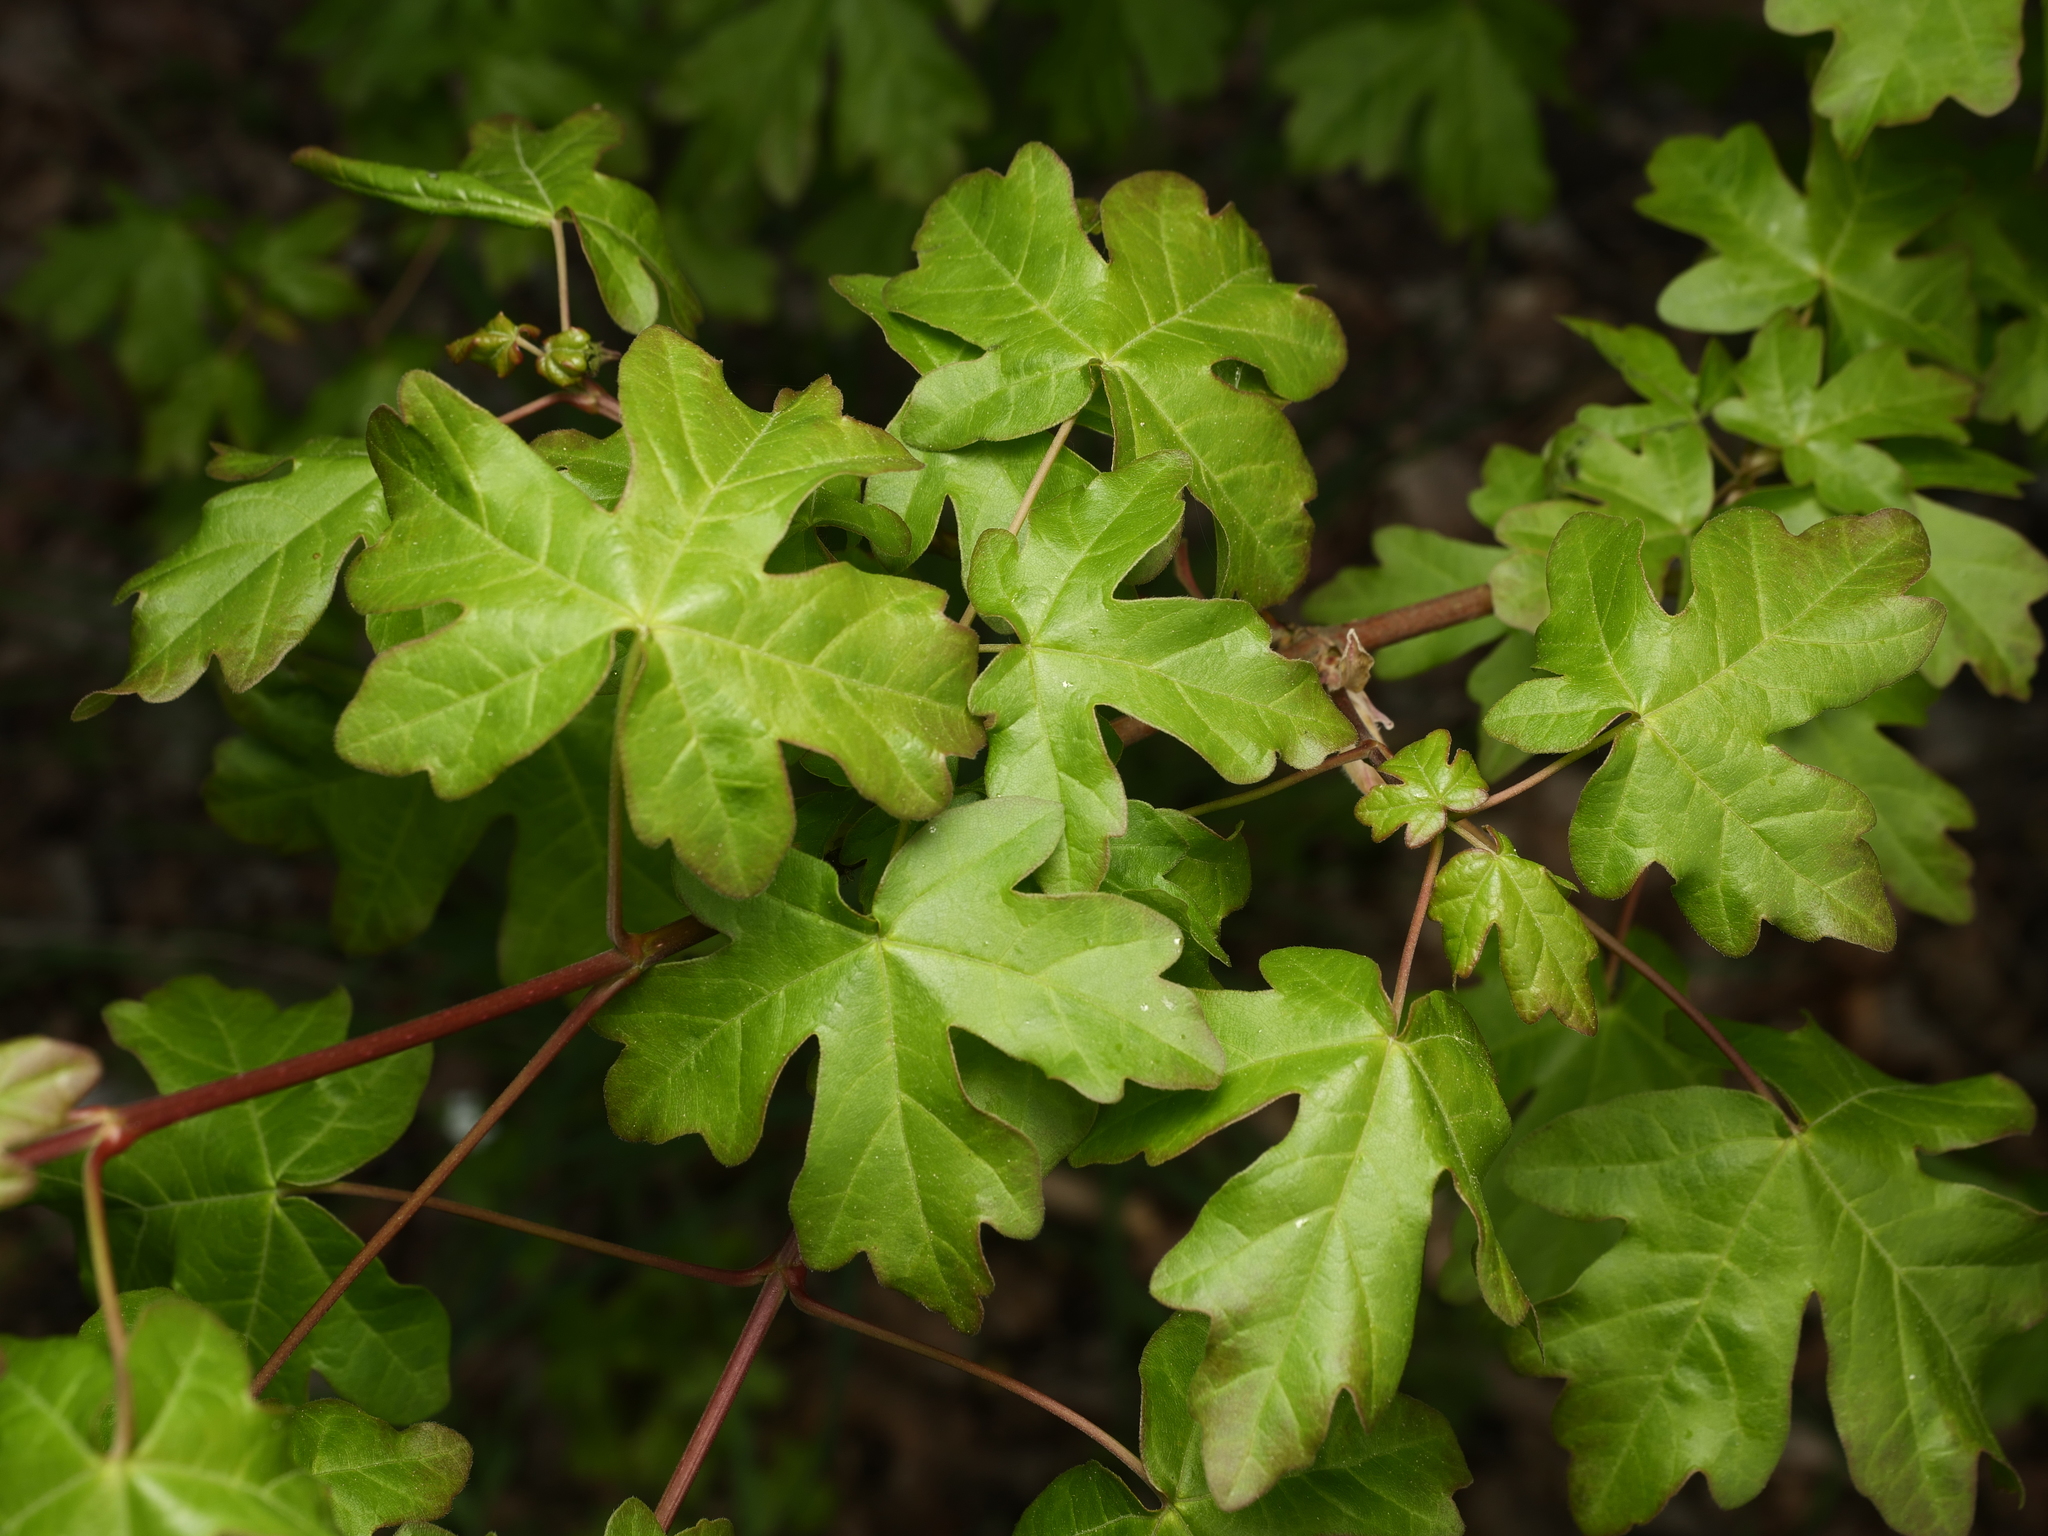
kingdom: Plantae
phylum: Tracheophyta
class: Magnoliopsida
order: Sapindales
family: Sapindaceae
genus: Acer
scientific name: Acer campestre
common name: Field maple
